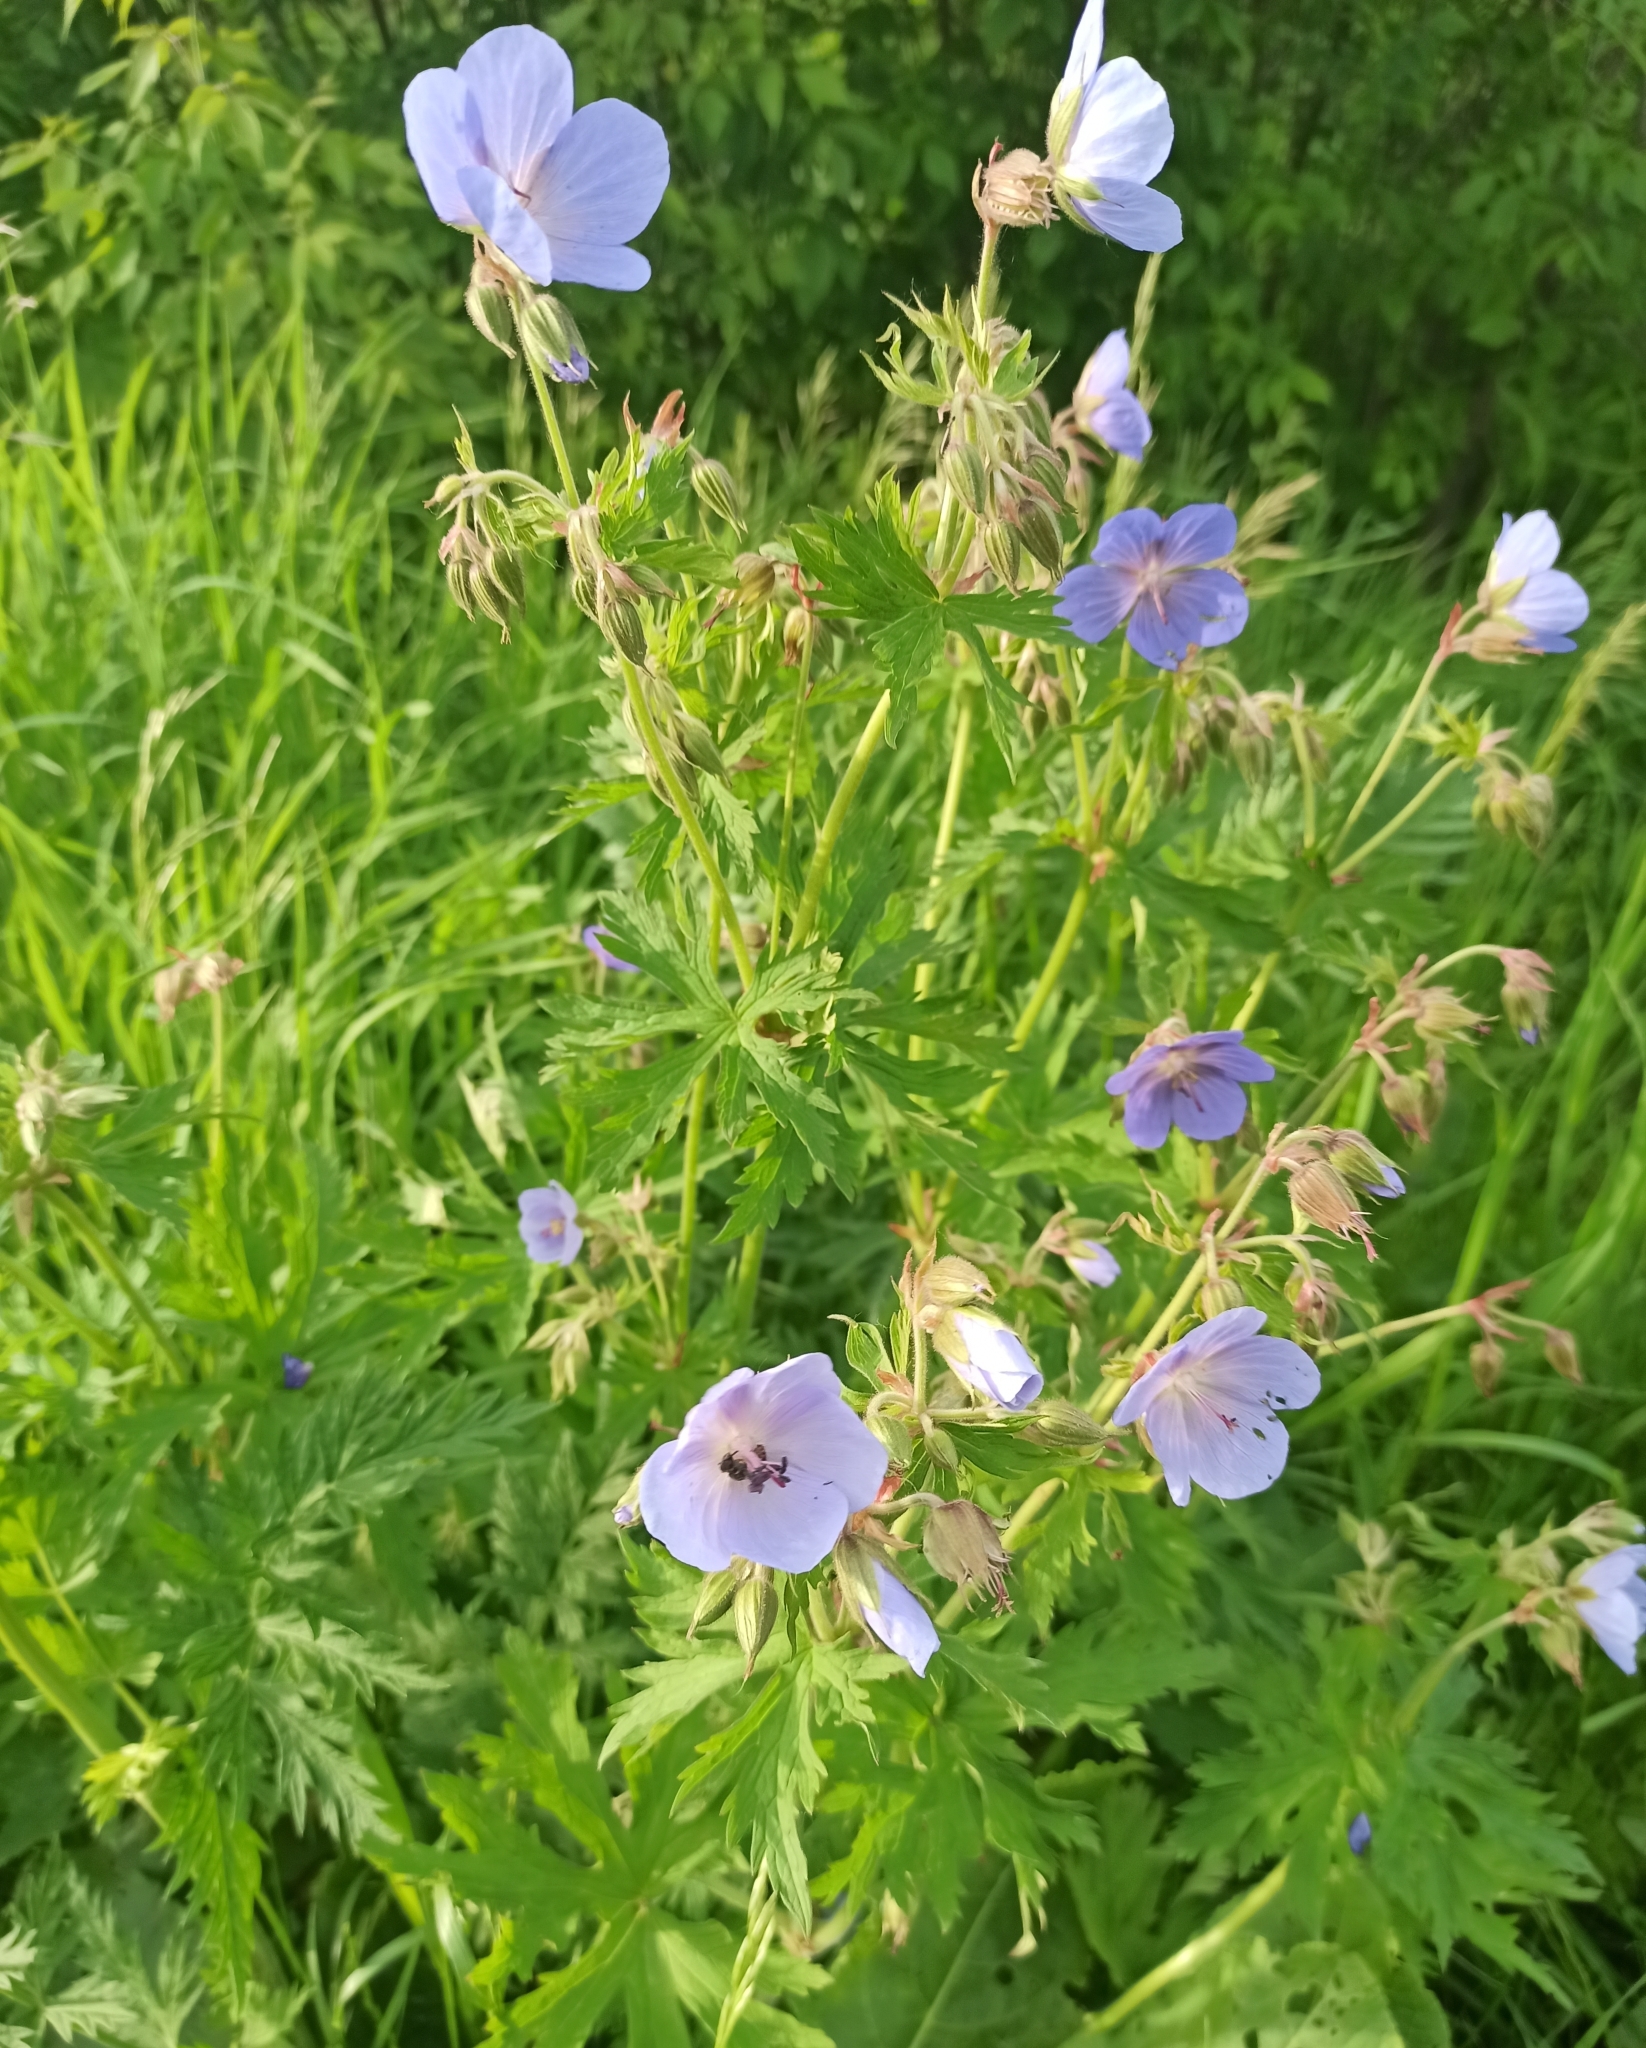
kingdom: Plantae
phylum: Tracheophyta
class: Magnoliopsida
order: Geraniales
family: Geraniaceae
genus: Geranium
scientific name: Geranium pratense
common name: Meadow crane's-bill
